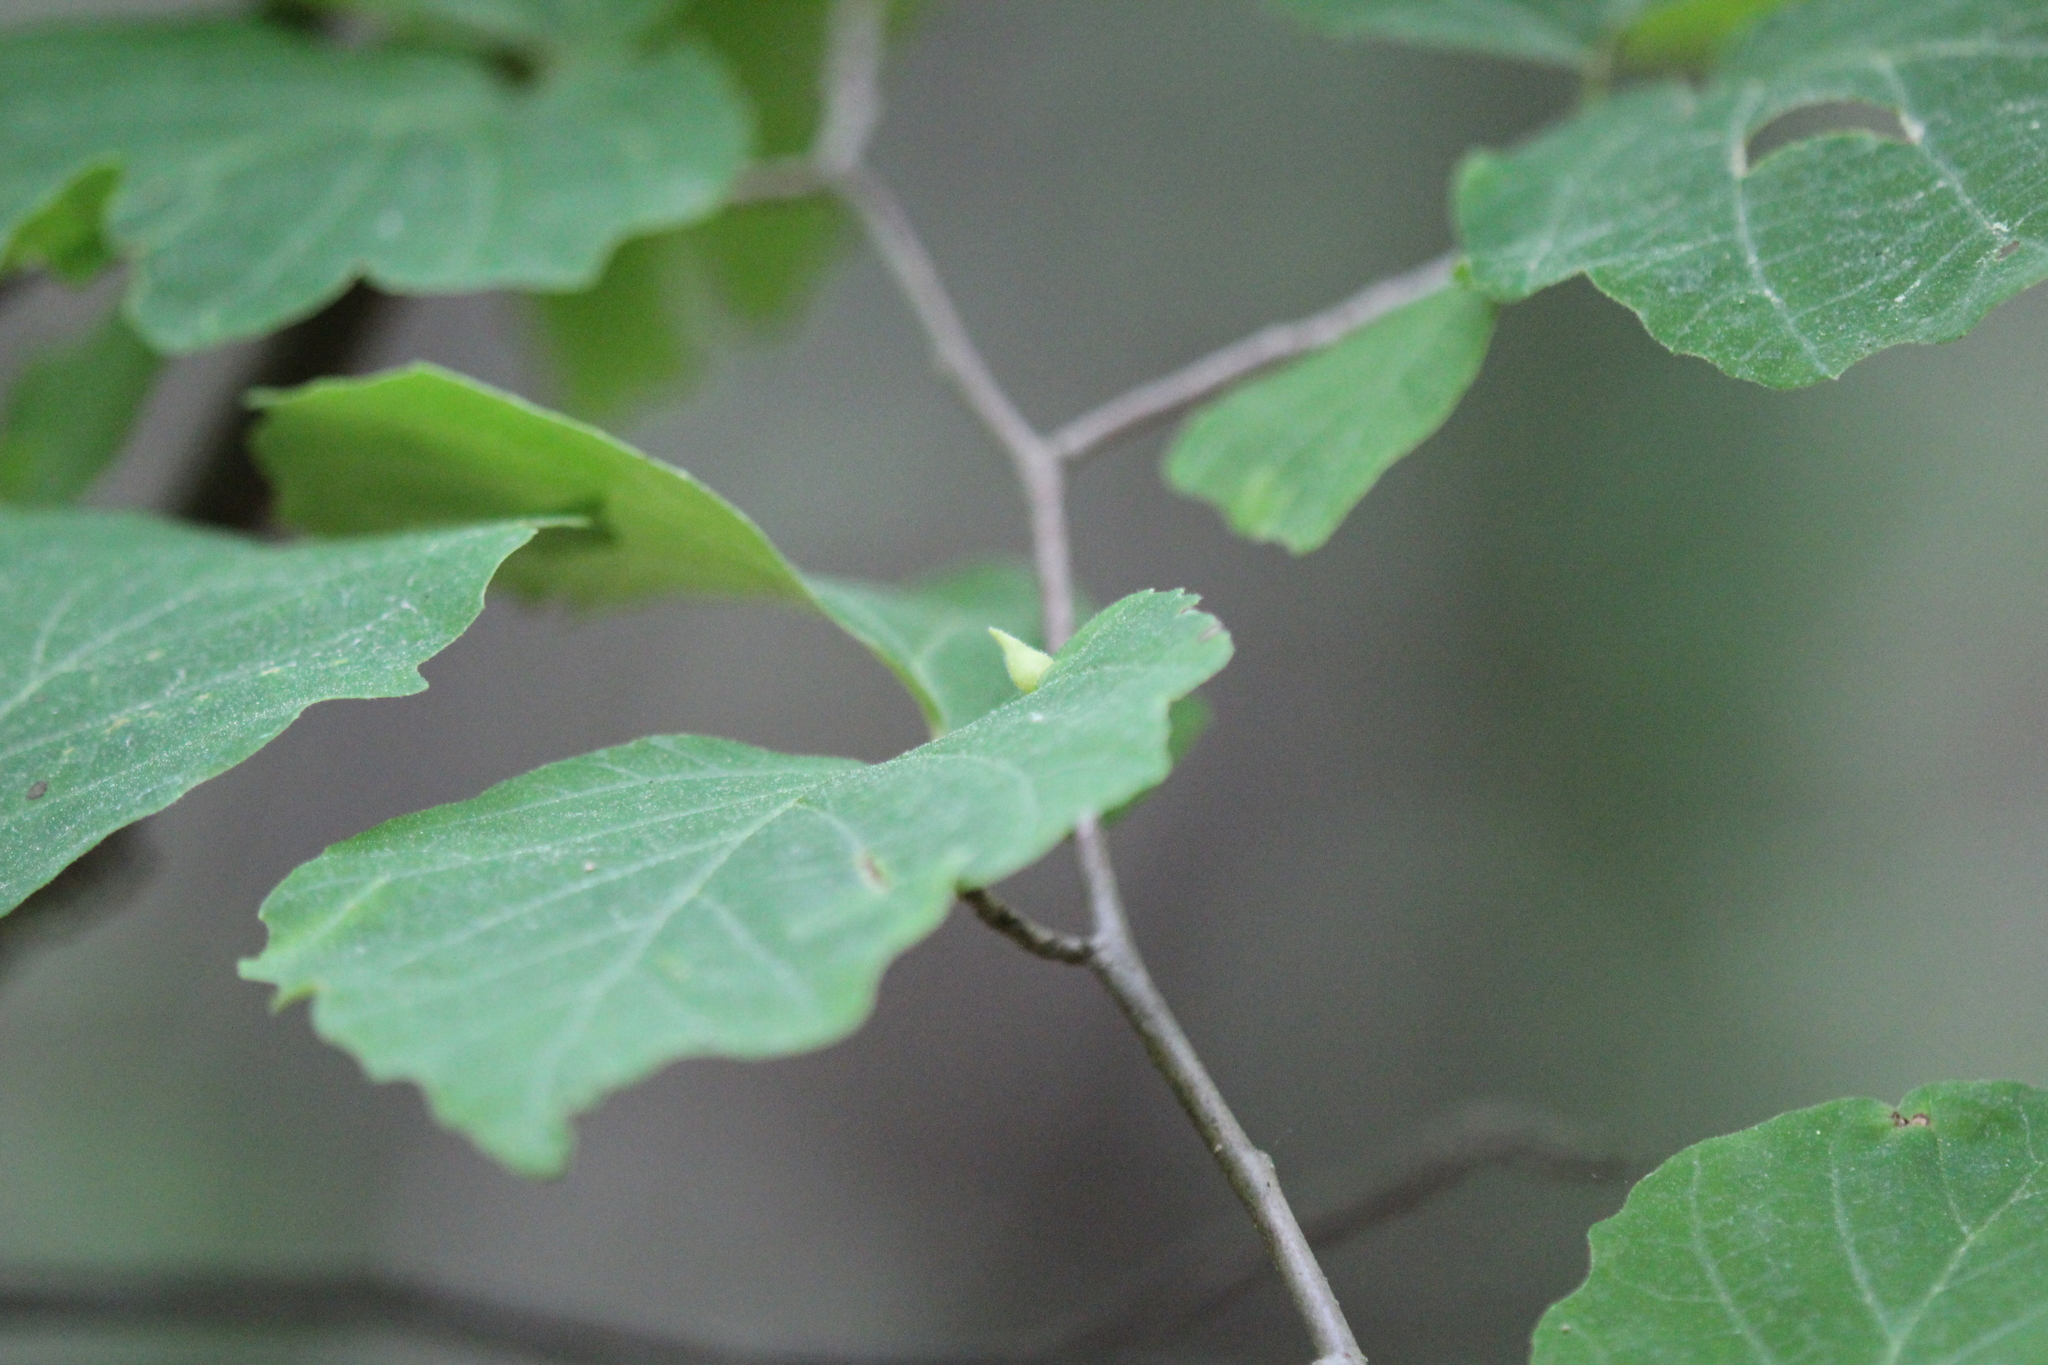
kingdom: Plantae
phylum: Tracheophyta
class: Magnoliopsida
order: Saxifragales
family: Hamamelidaceae
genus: Hamamelis
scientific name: Hamamelis virginiana
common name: Witch-hazel
